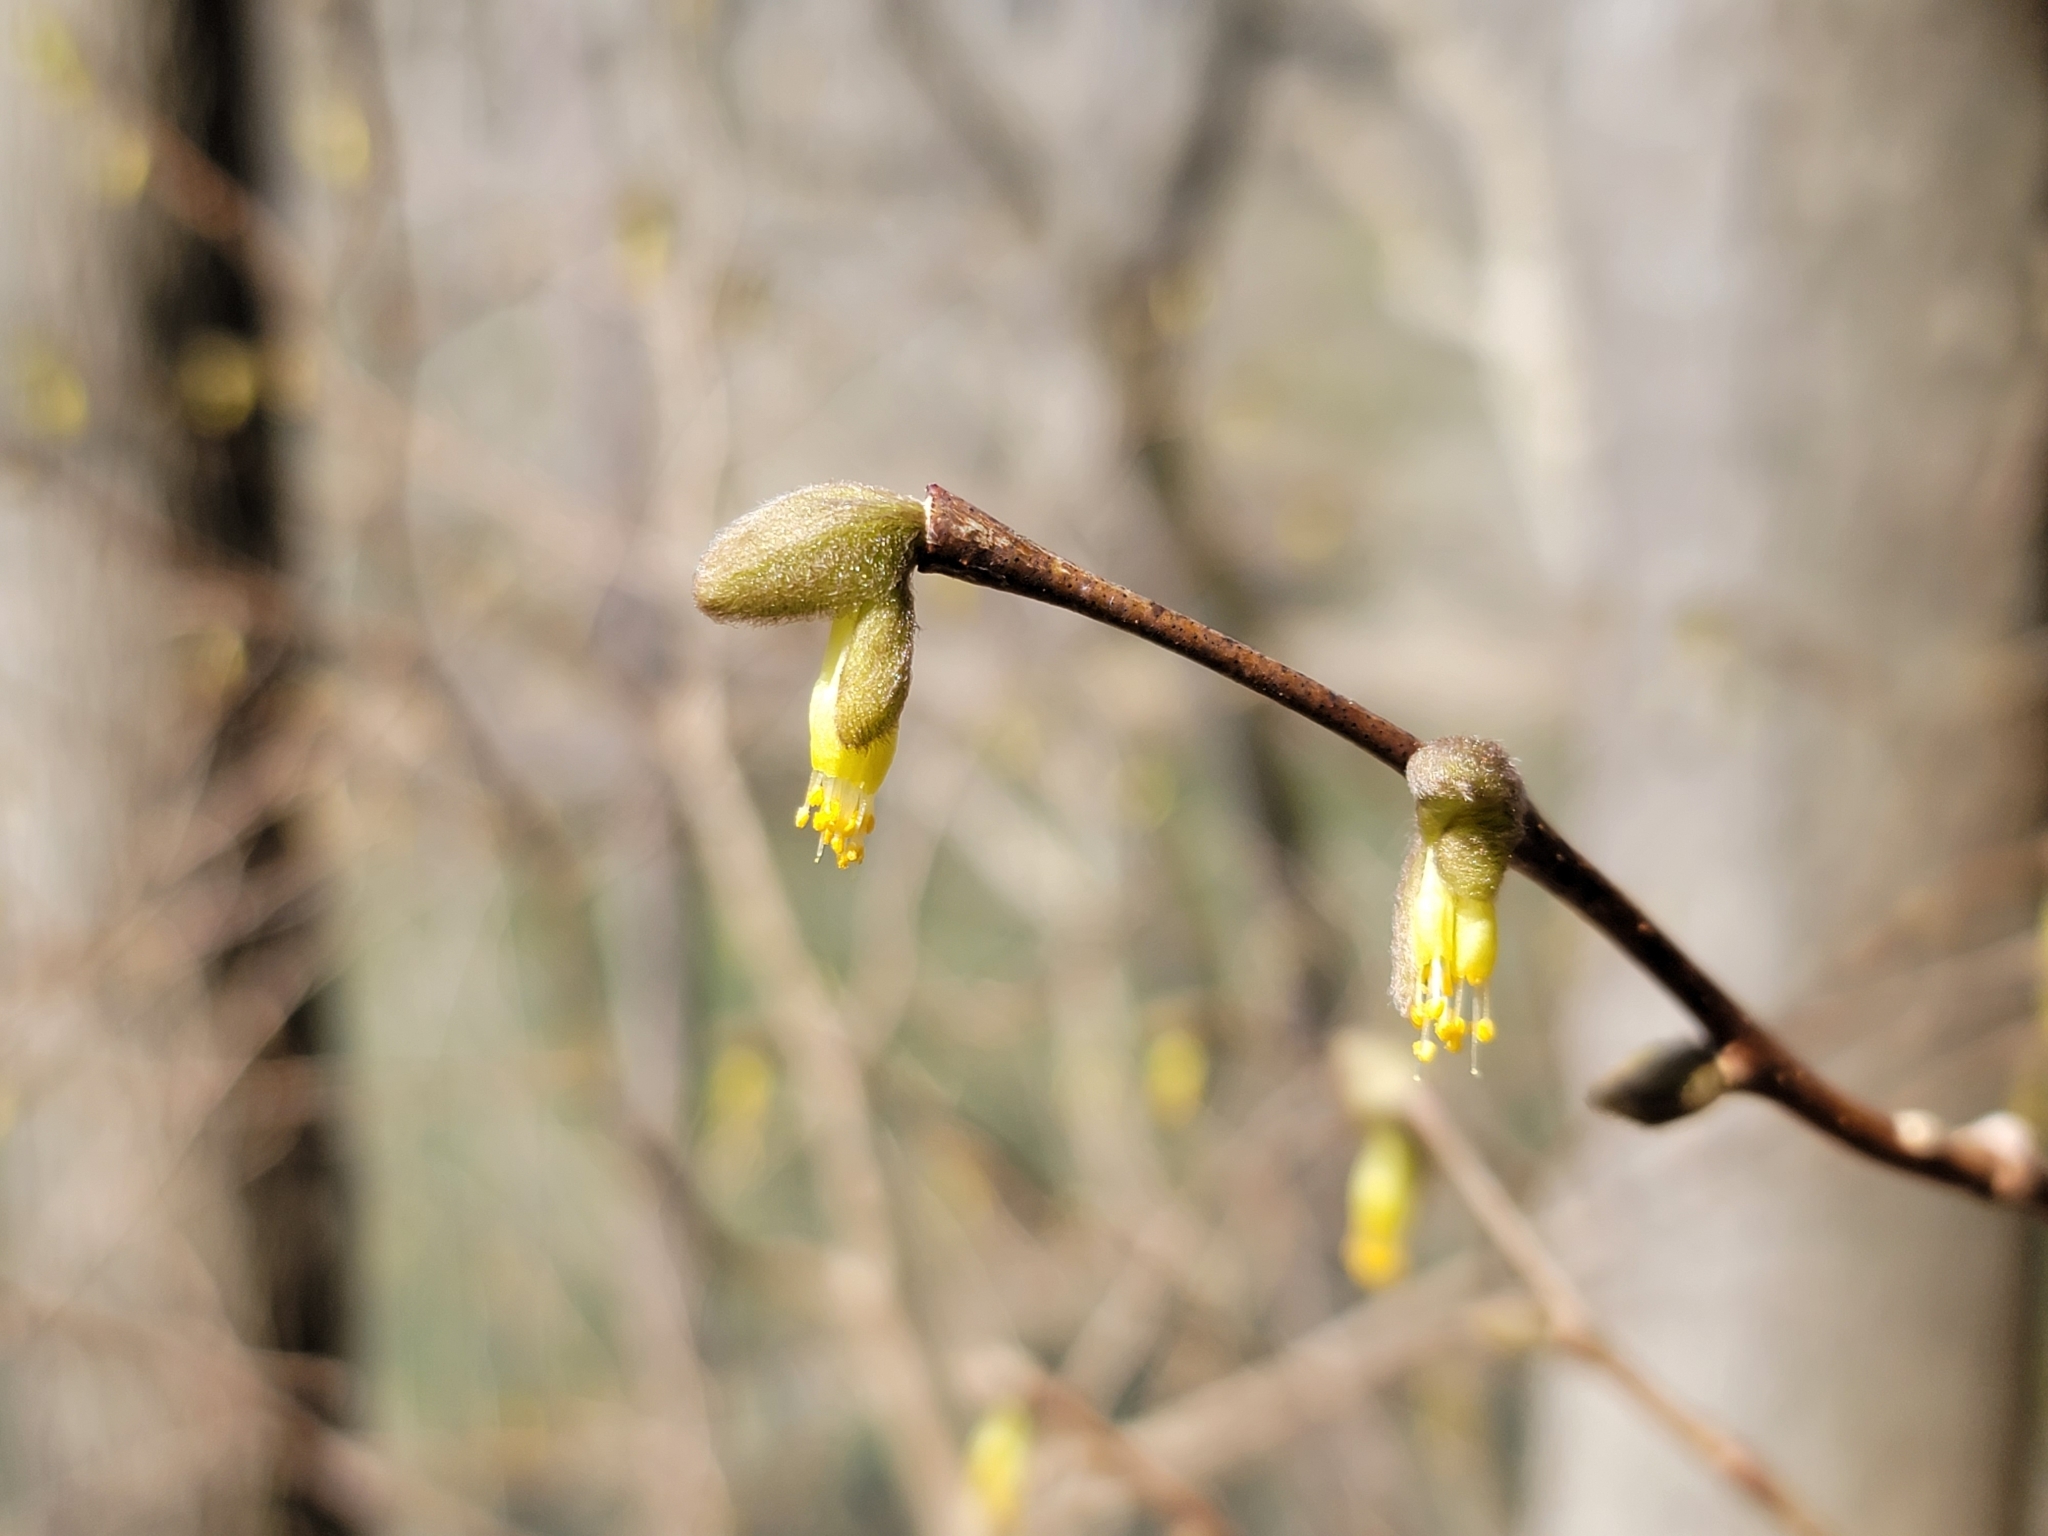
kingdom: Plantae
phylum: Tracheophyta
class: Magnoliopsida
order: Malvales
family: Thymelaeaceae
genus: Dirca
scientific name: Dirca palustris
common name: Leatherwood
